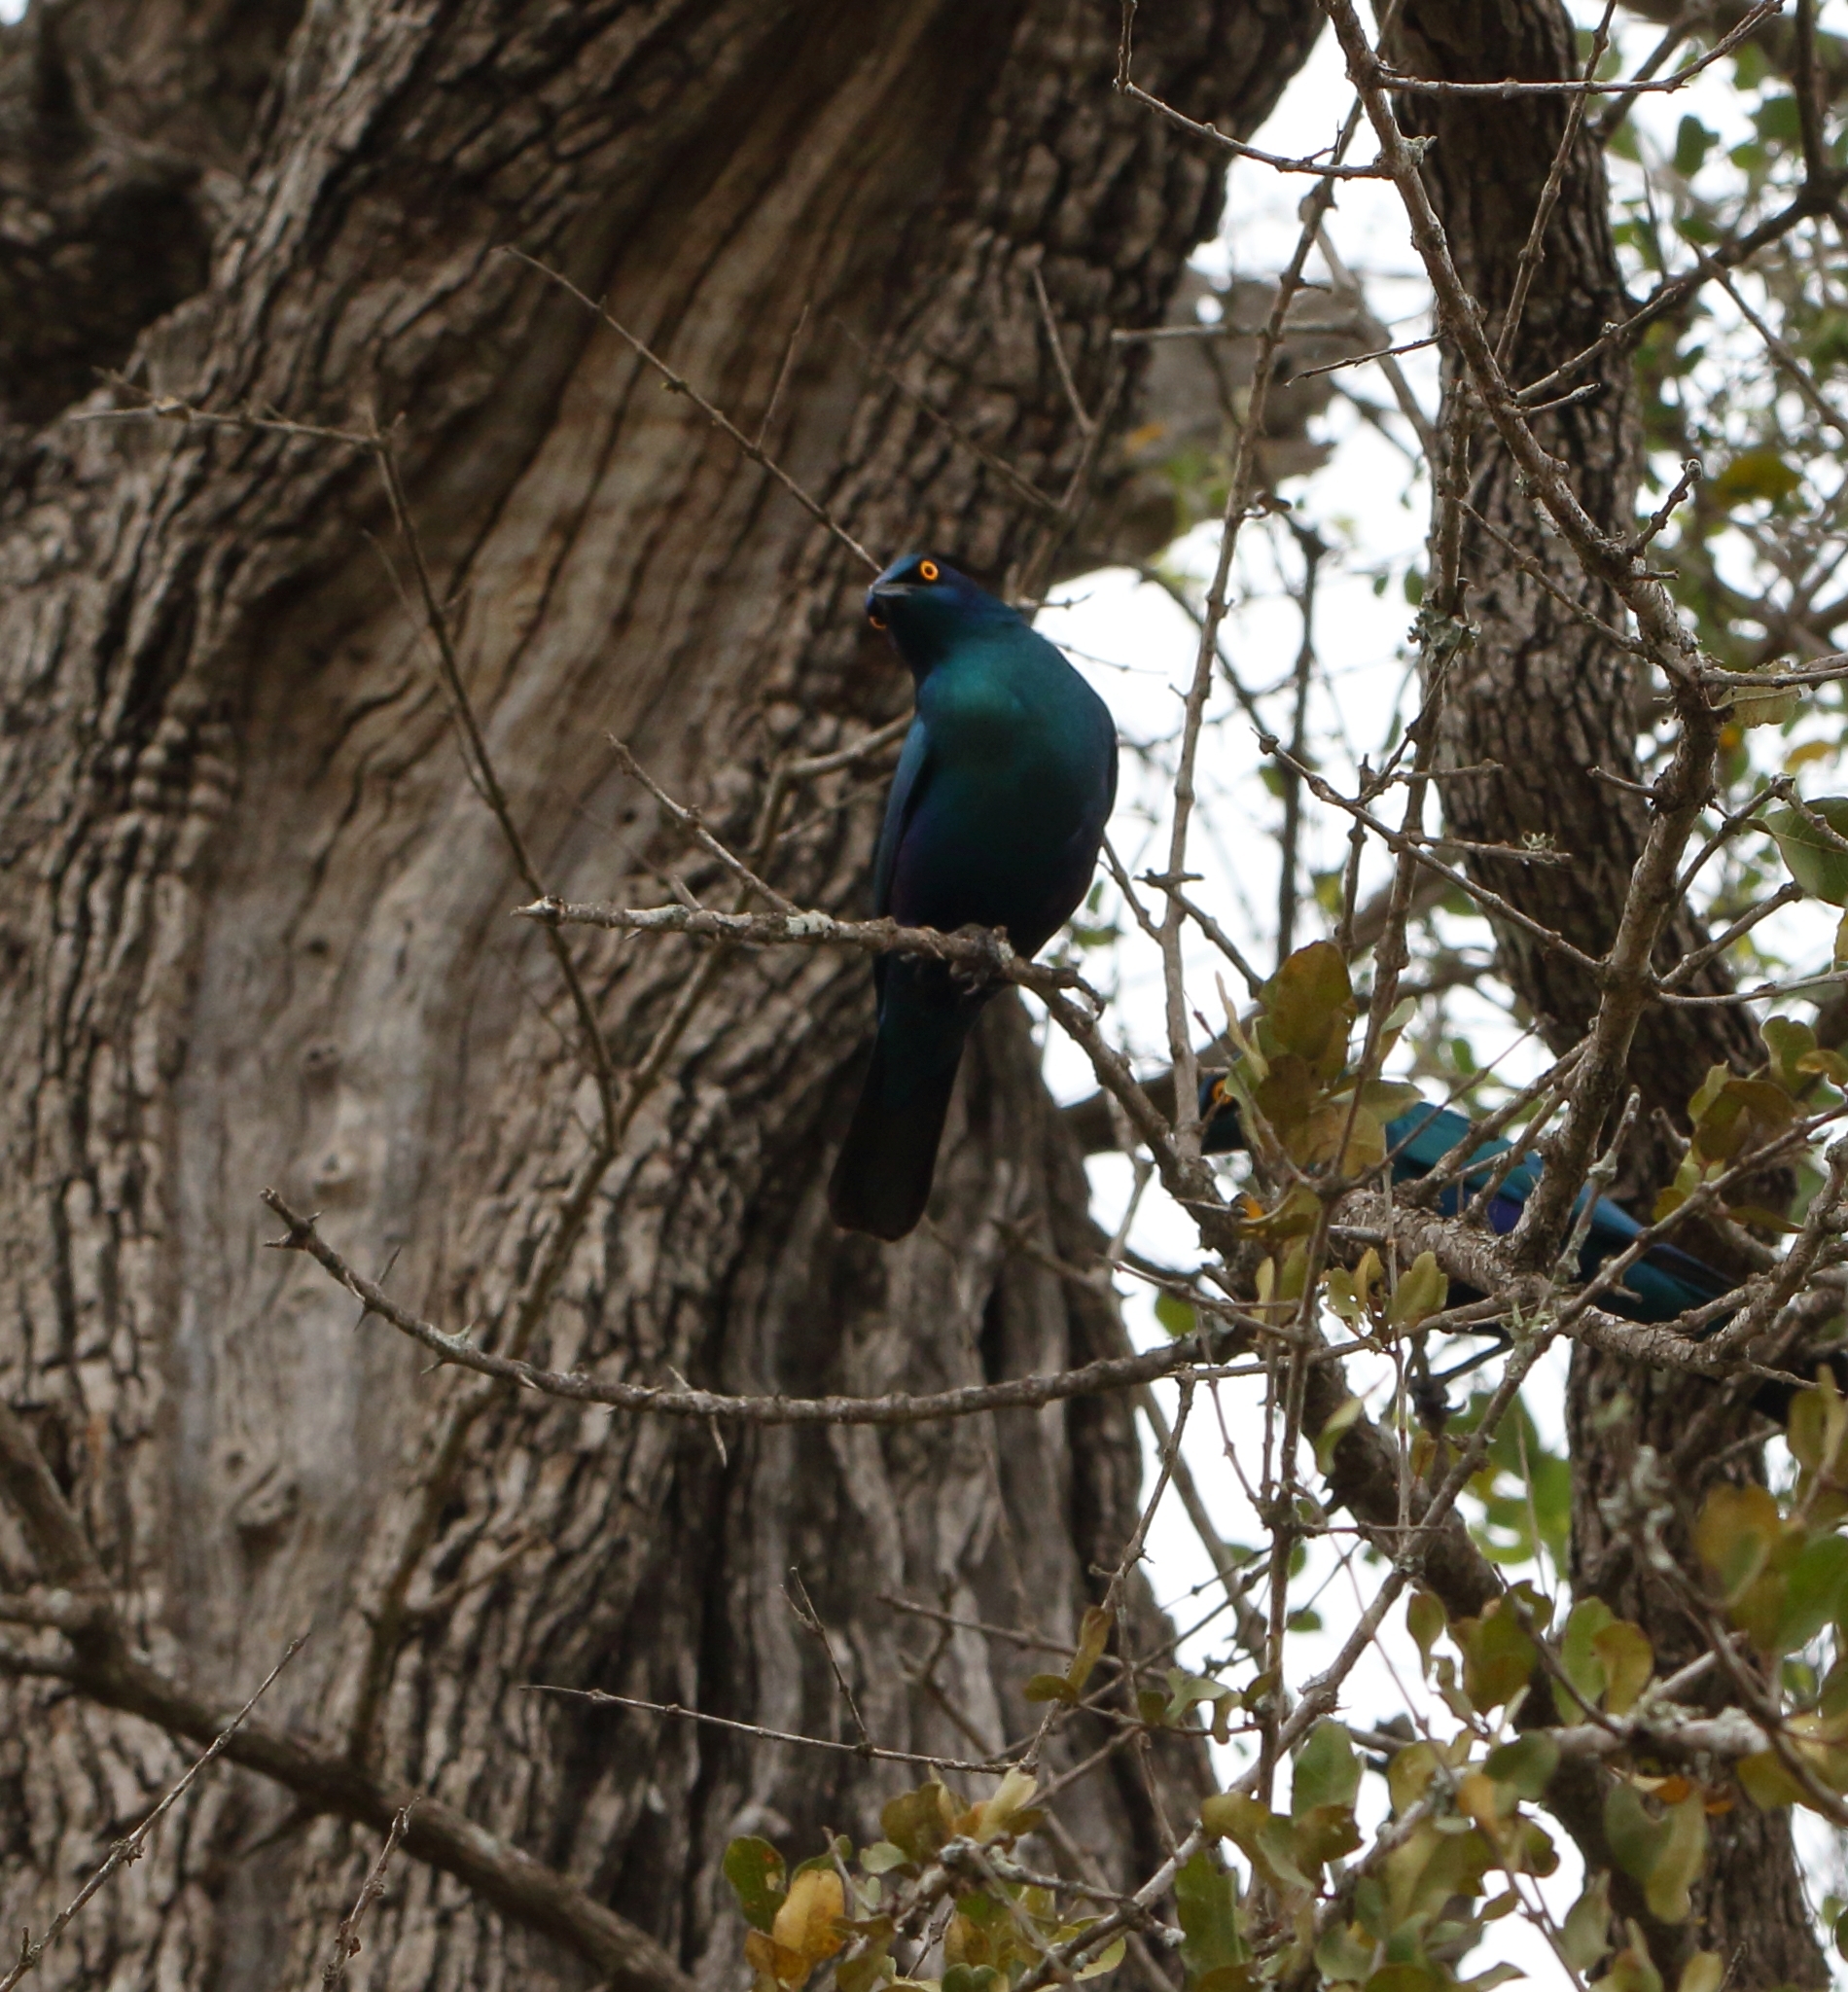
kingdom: Animalia
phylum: Chordata
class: Aves
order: Passeriformes
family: Sturnidae
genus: Lamprotornis
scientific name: Lamprotornis chalybaeus
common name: Greater blue-eared starling
